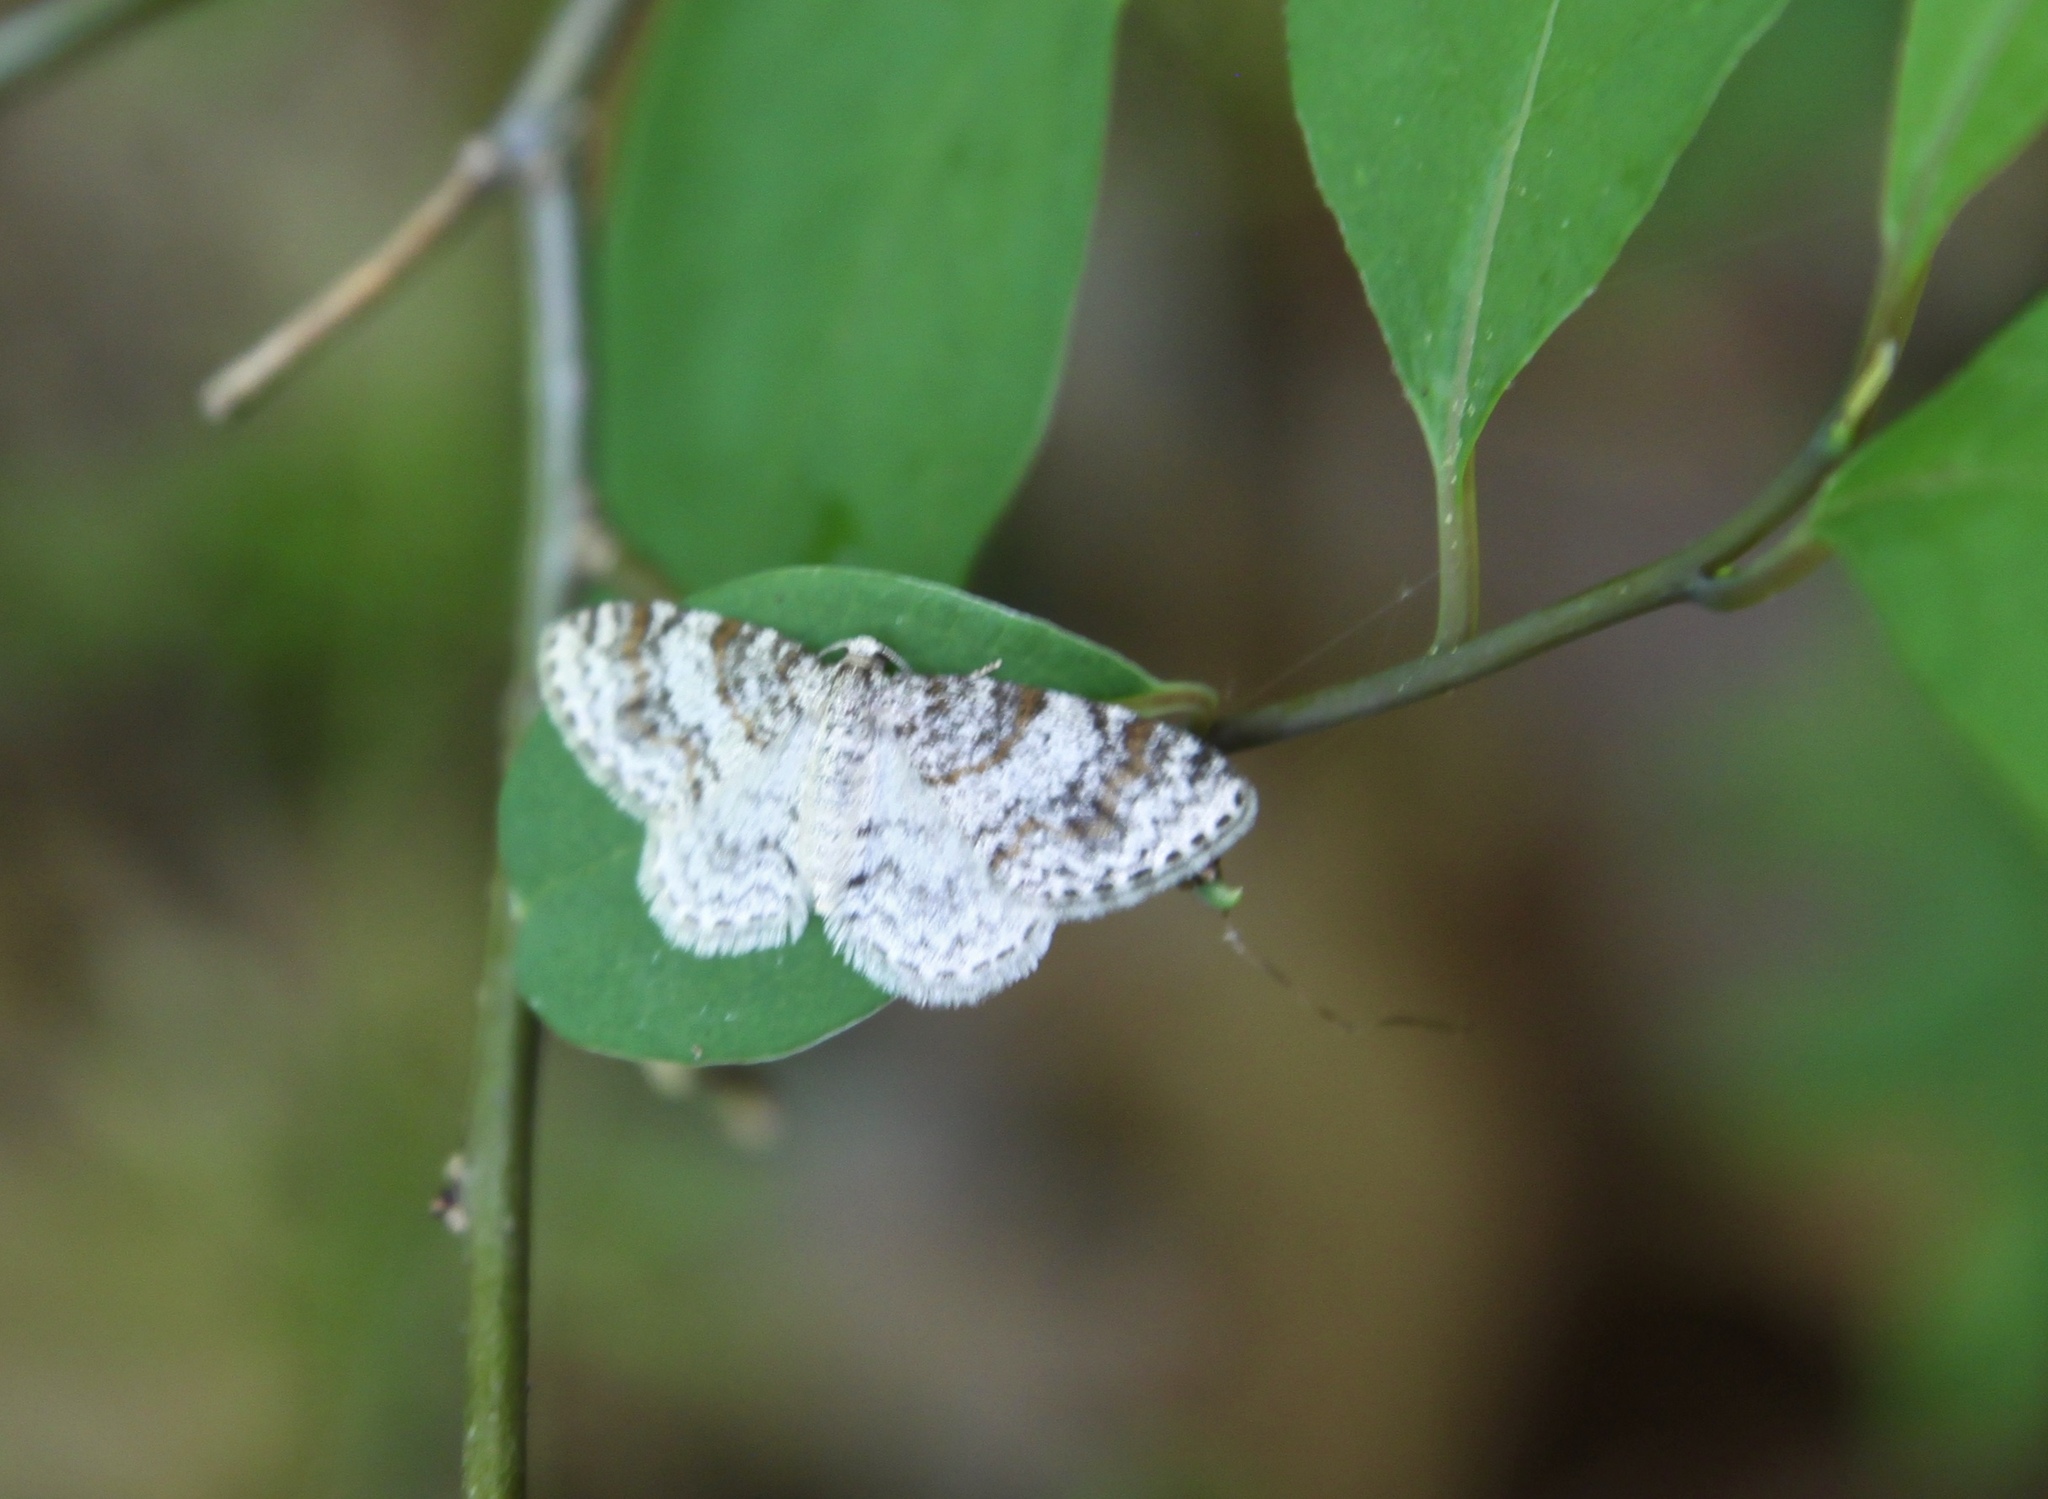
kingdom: Animalia
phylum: Arthropoda
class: Insecta
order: Lepidoptera
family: Geometridae
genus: Hydrelia
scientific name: Hydrelia inornata
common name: Unadorned carpet moth
